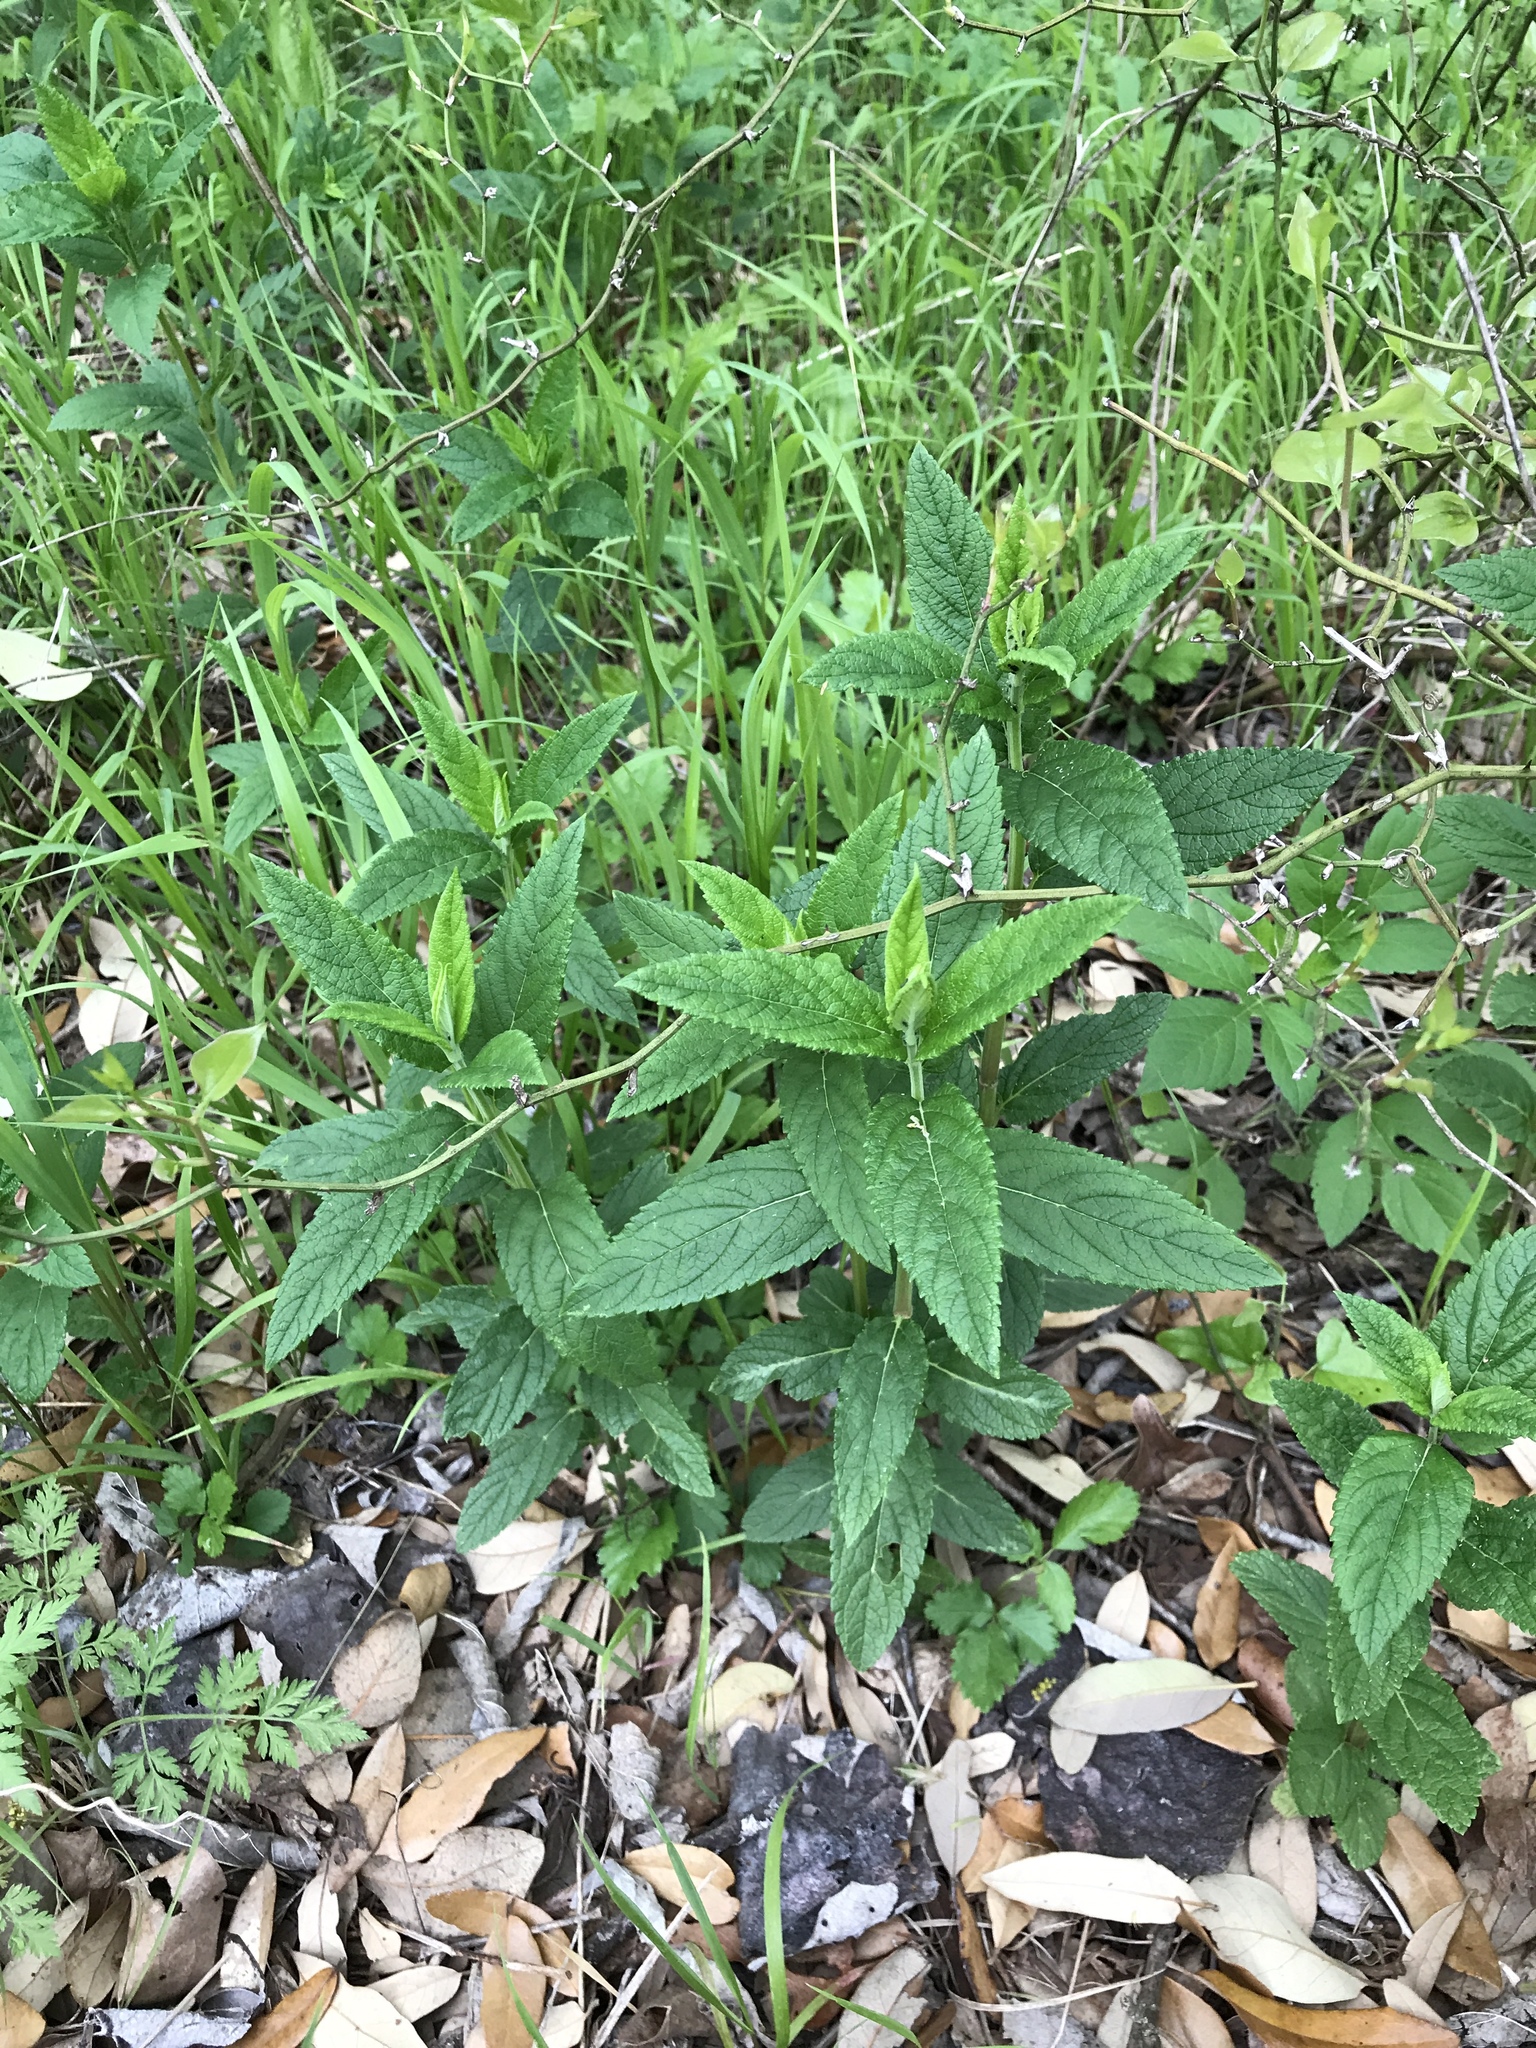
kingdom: Plantae
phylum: Tracheophyta
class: Magnoliopsida
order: Lamiales
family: Lamiaceae
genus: Teucrium
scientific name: Teucrium canadense
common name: American germander
